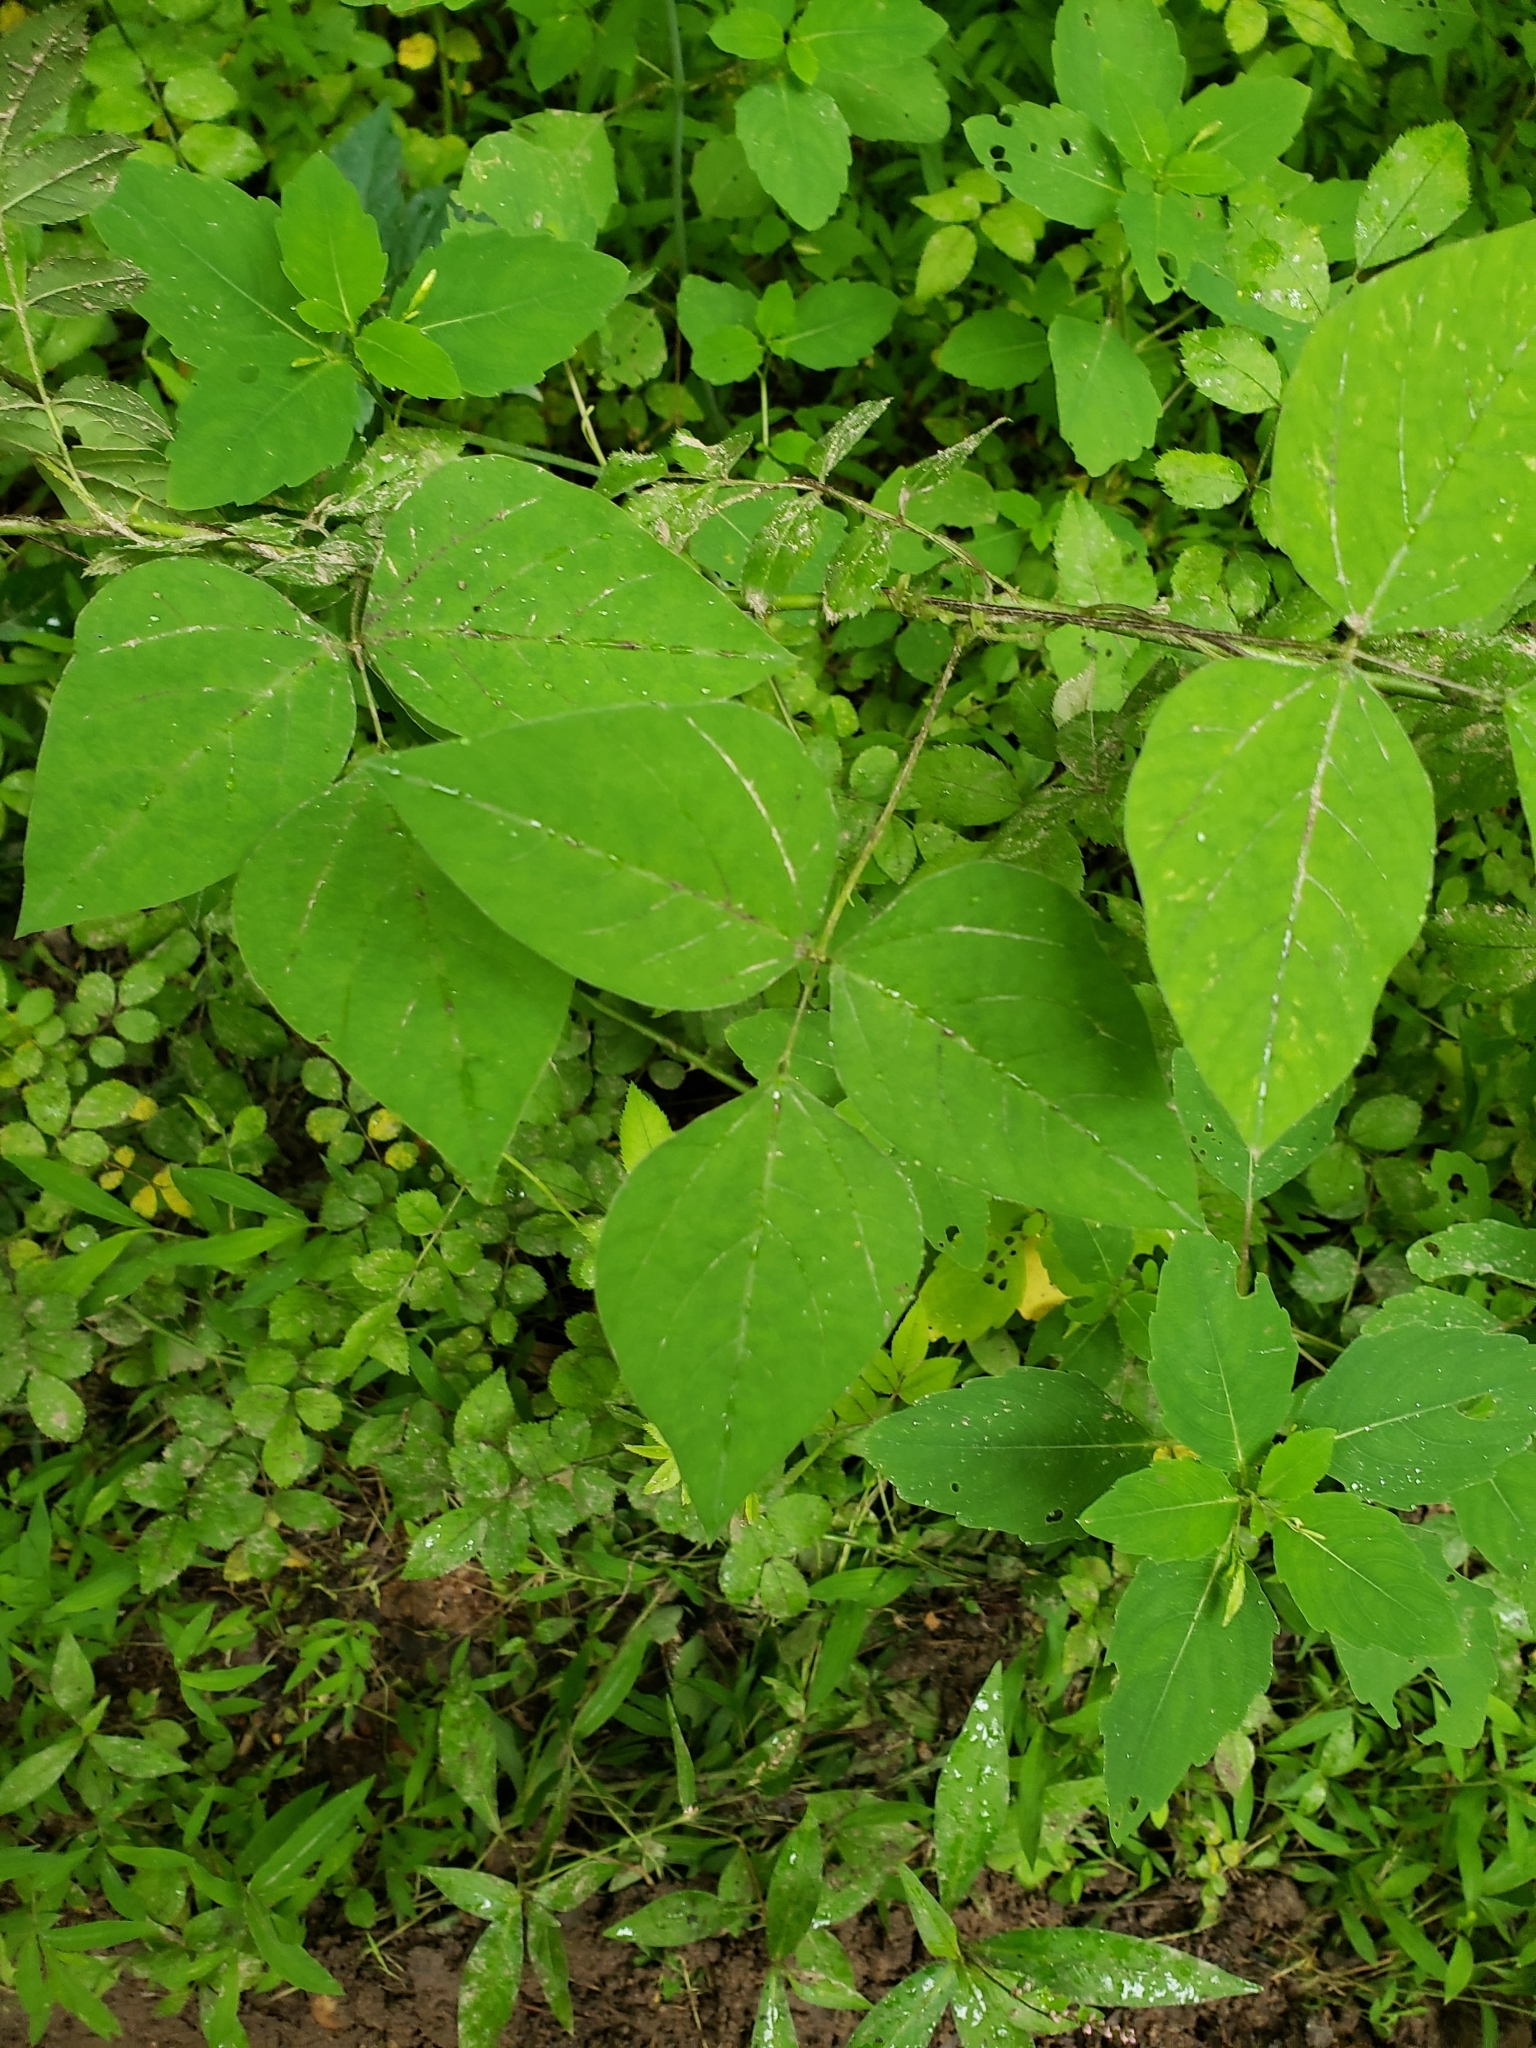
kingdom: Plantae
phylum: Tracheophyta
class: Magnoliopsida
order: Fabales
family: Fabaceae
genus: Amphicarpaea
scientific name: Amphicarpaea bracteata
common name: American hog peanut
